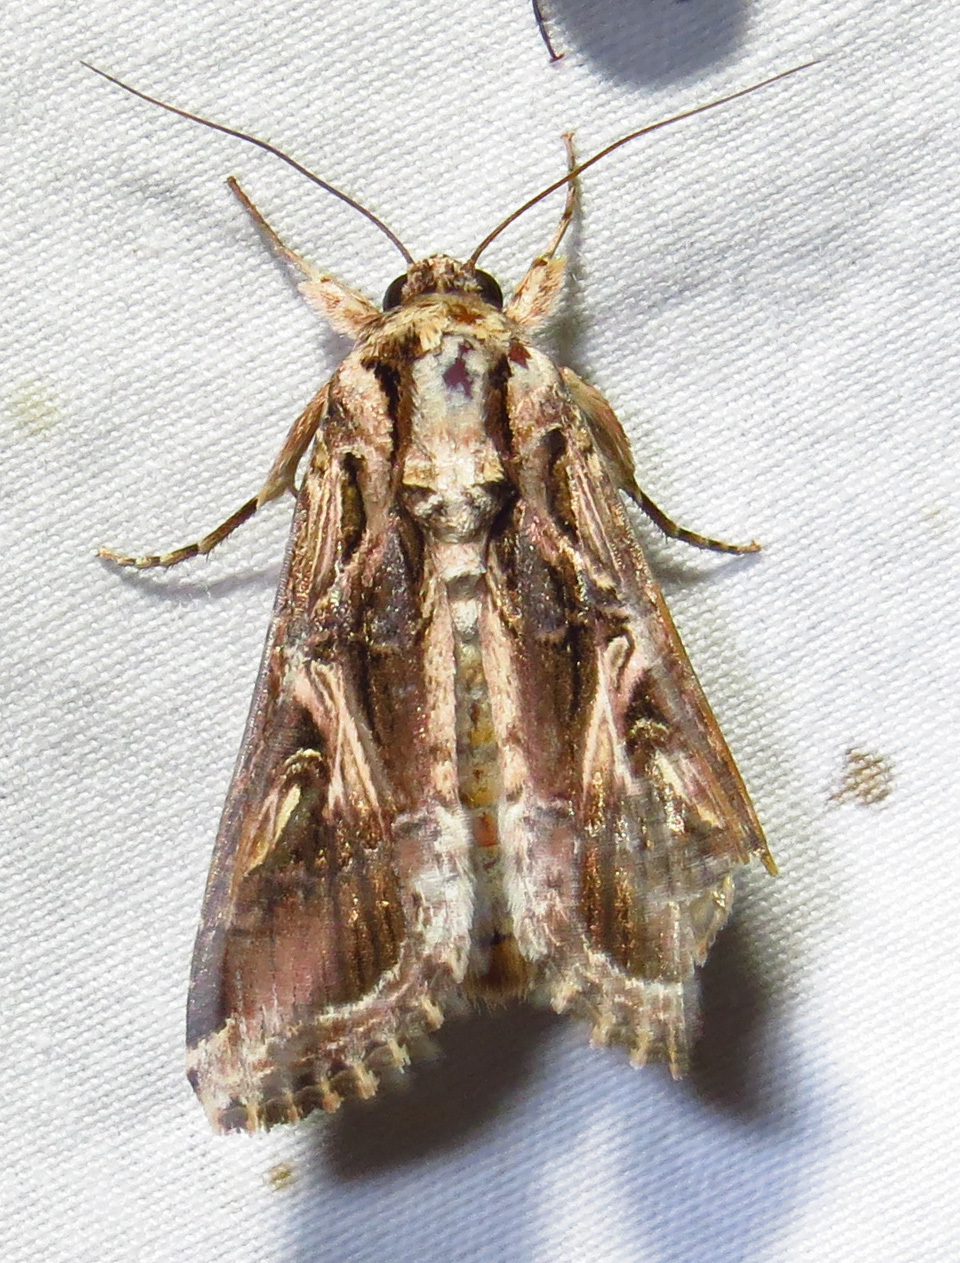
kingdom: Animalia
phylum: Arthropoda
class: Insecta
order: Lepidoptera
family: Noctuidae
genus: Spodoptera
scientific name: Spodoptera dolichos
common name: Sweetpotato armyworm
